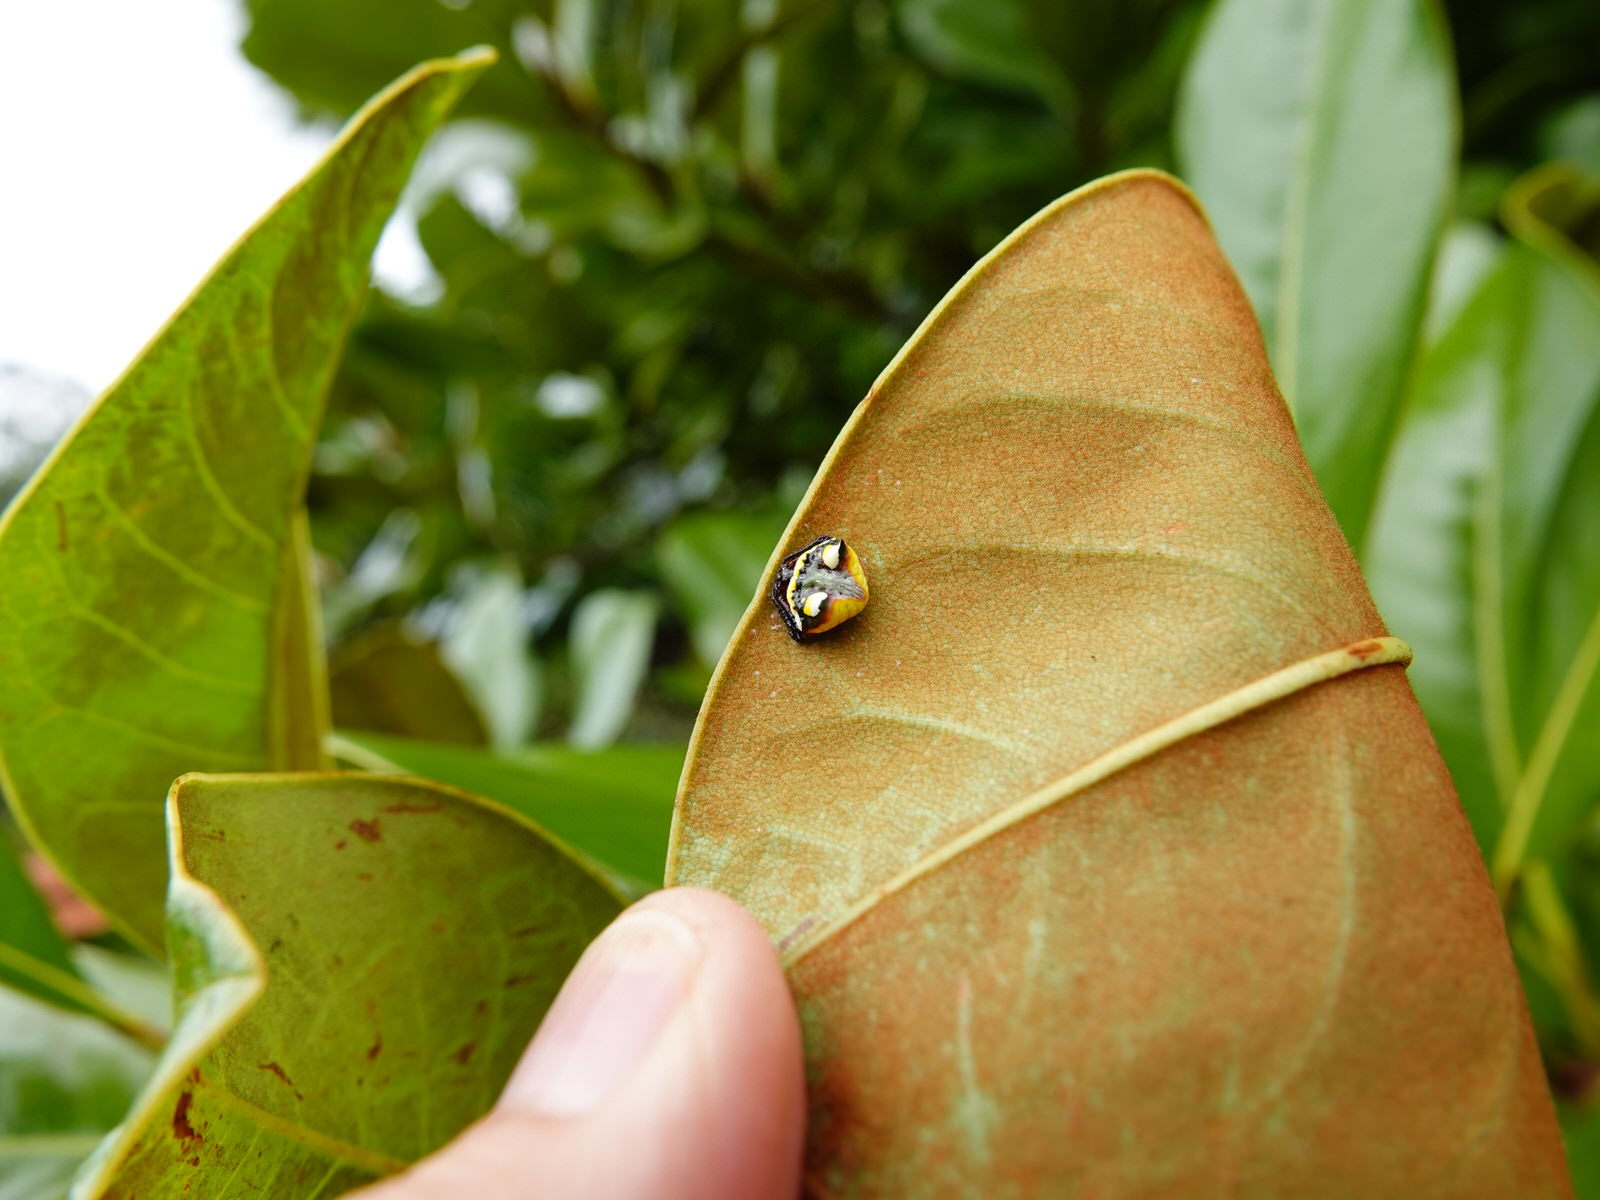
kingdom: Animalia
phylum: Arthropoda
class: Arachnida
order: Araneae
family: Araneidae
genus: Poecilopachys
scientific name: Poecilopachys australasia
